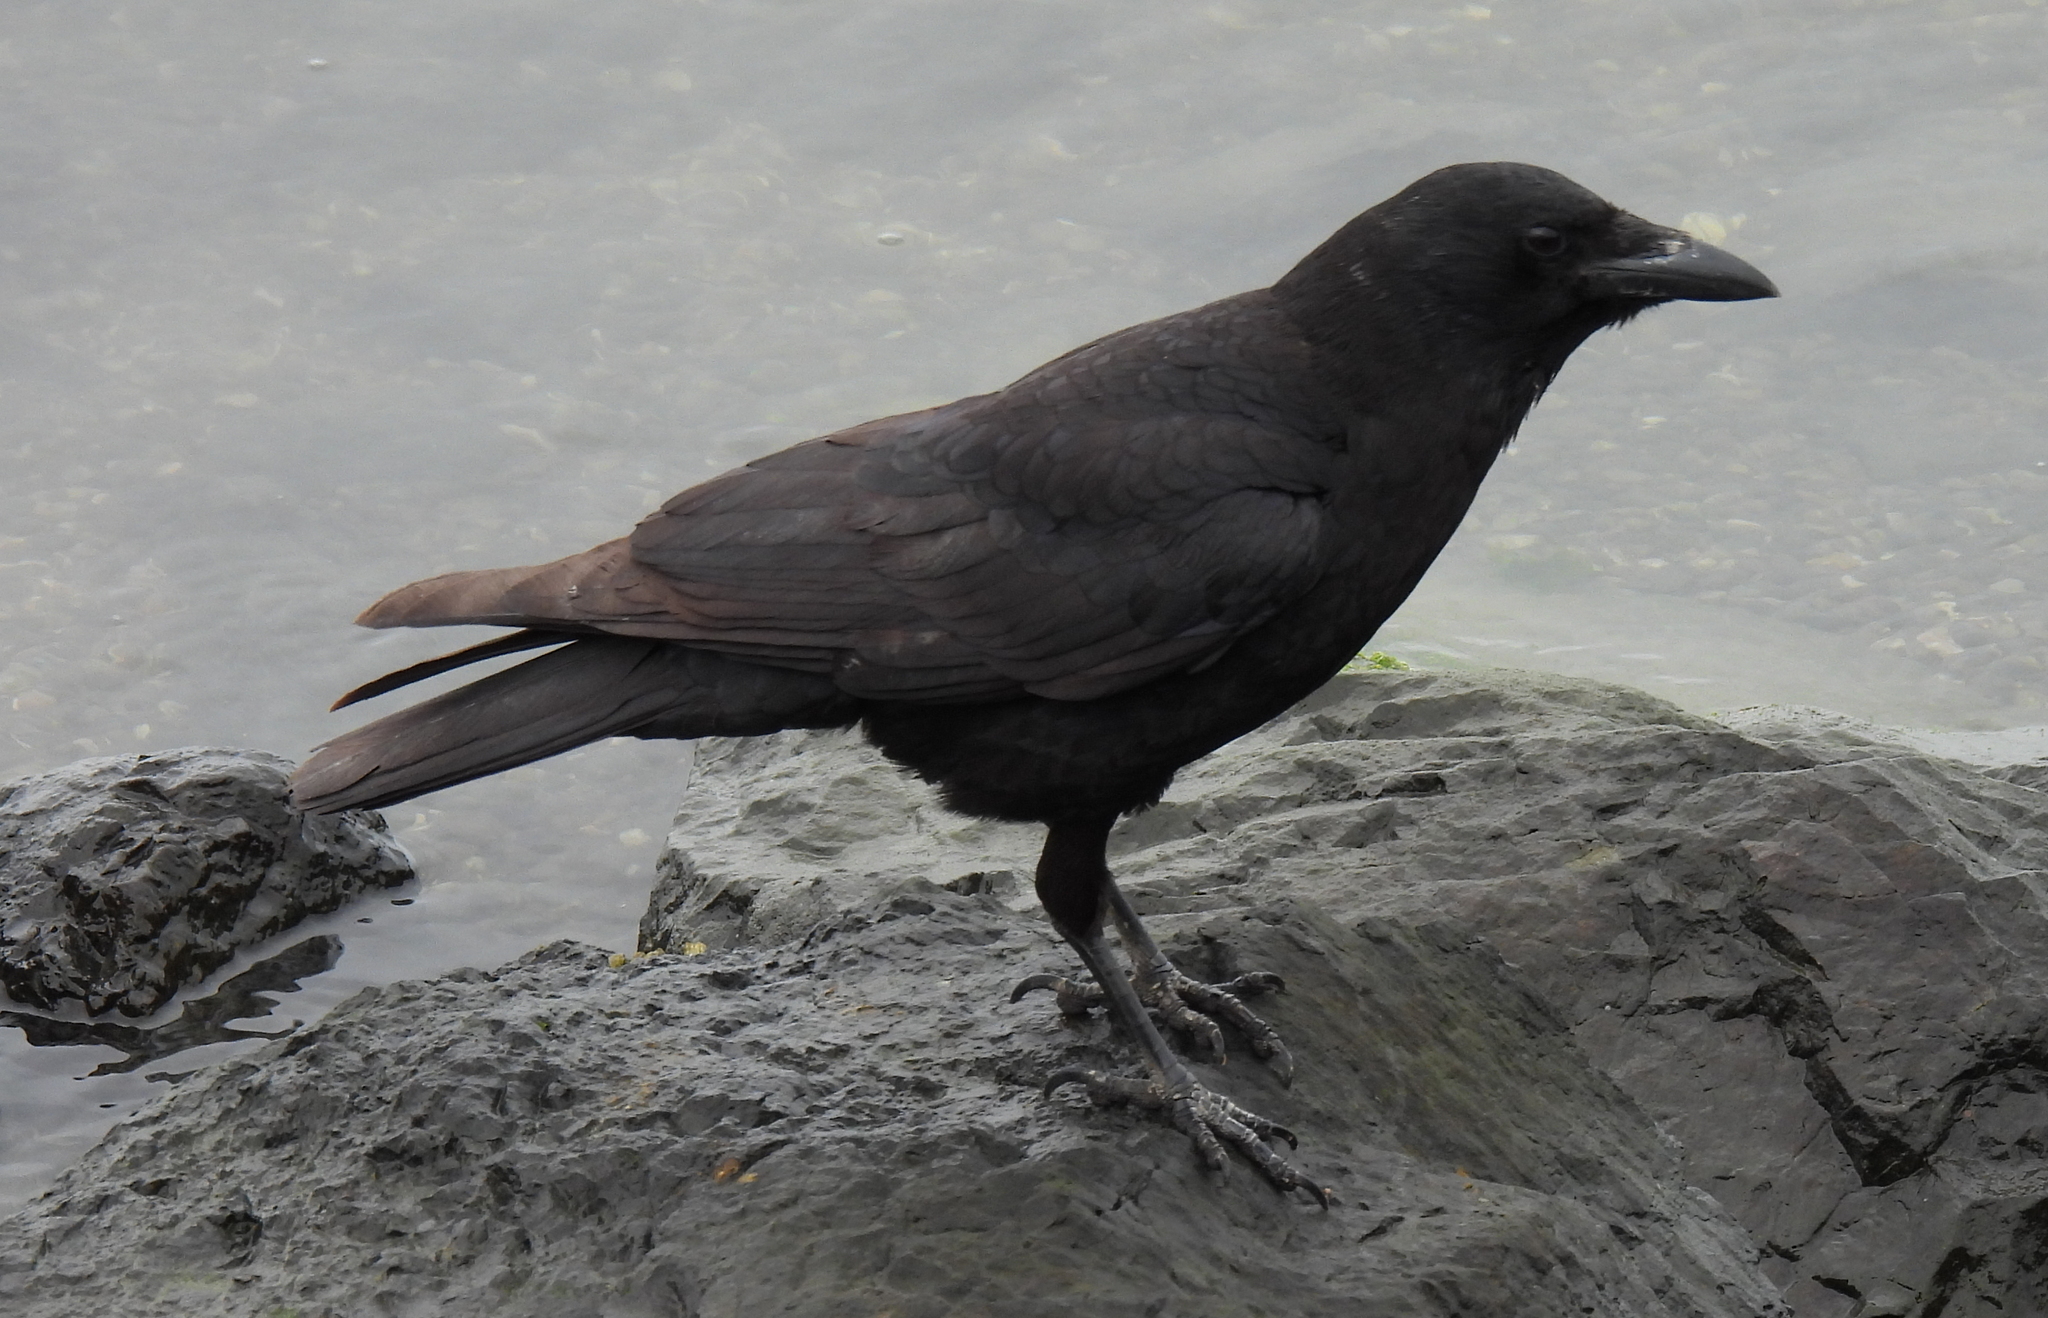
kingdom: Animalia
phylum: Chordata
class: Aves
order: Passeriformes
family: Corvidae
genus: Corvus
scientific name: Corvus brachyrhynchos
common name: American crow
